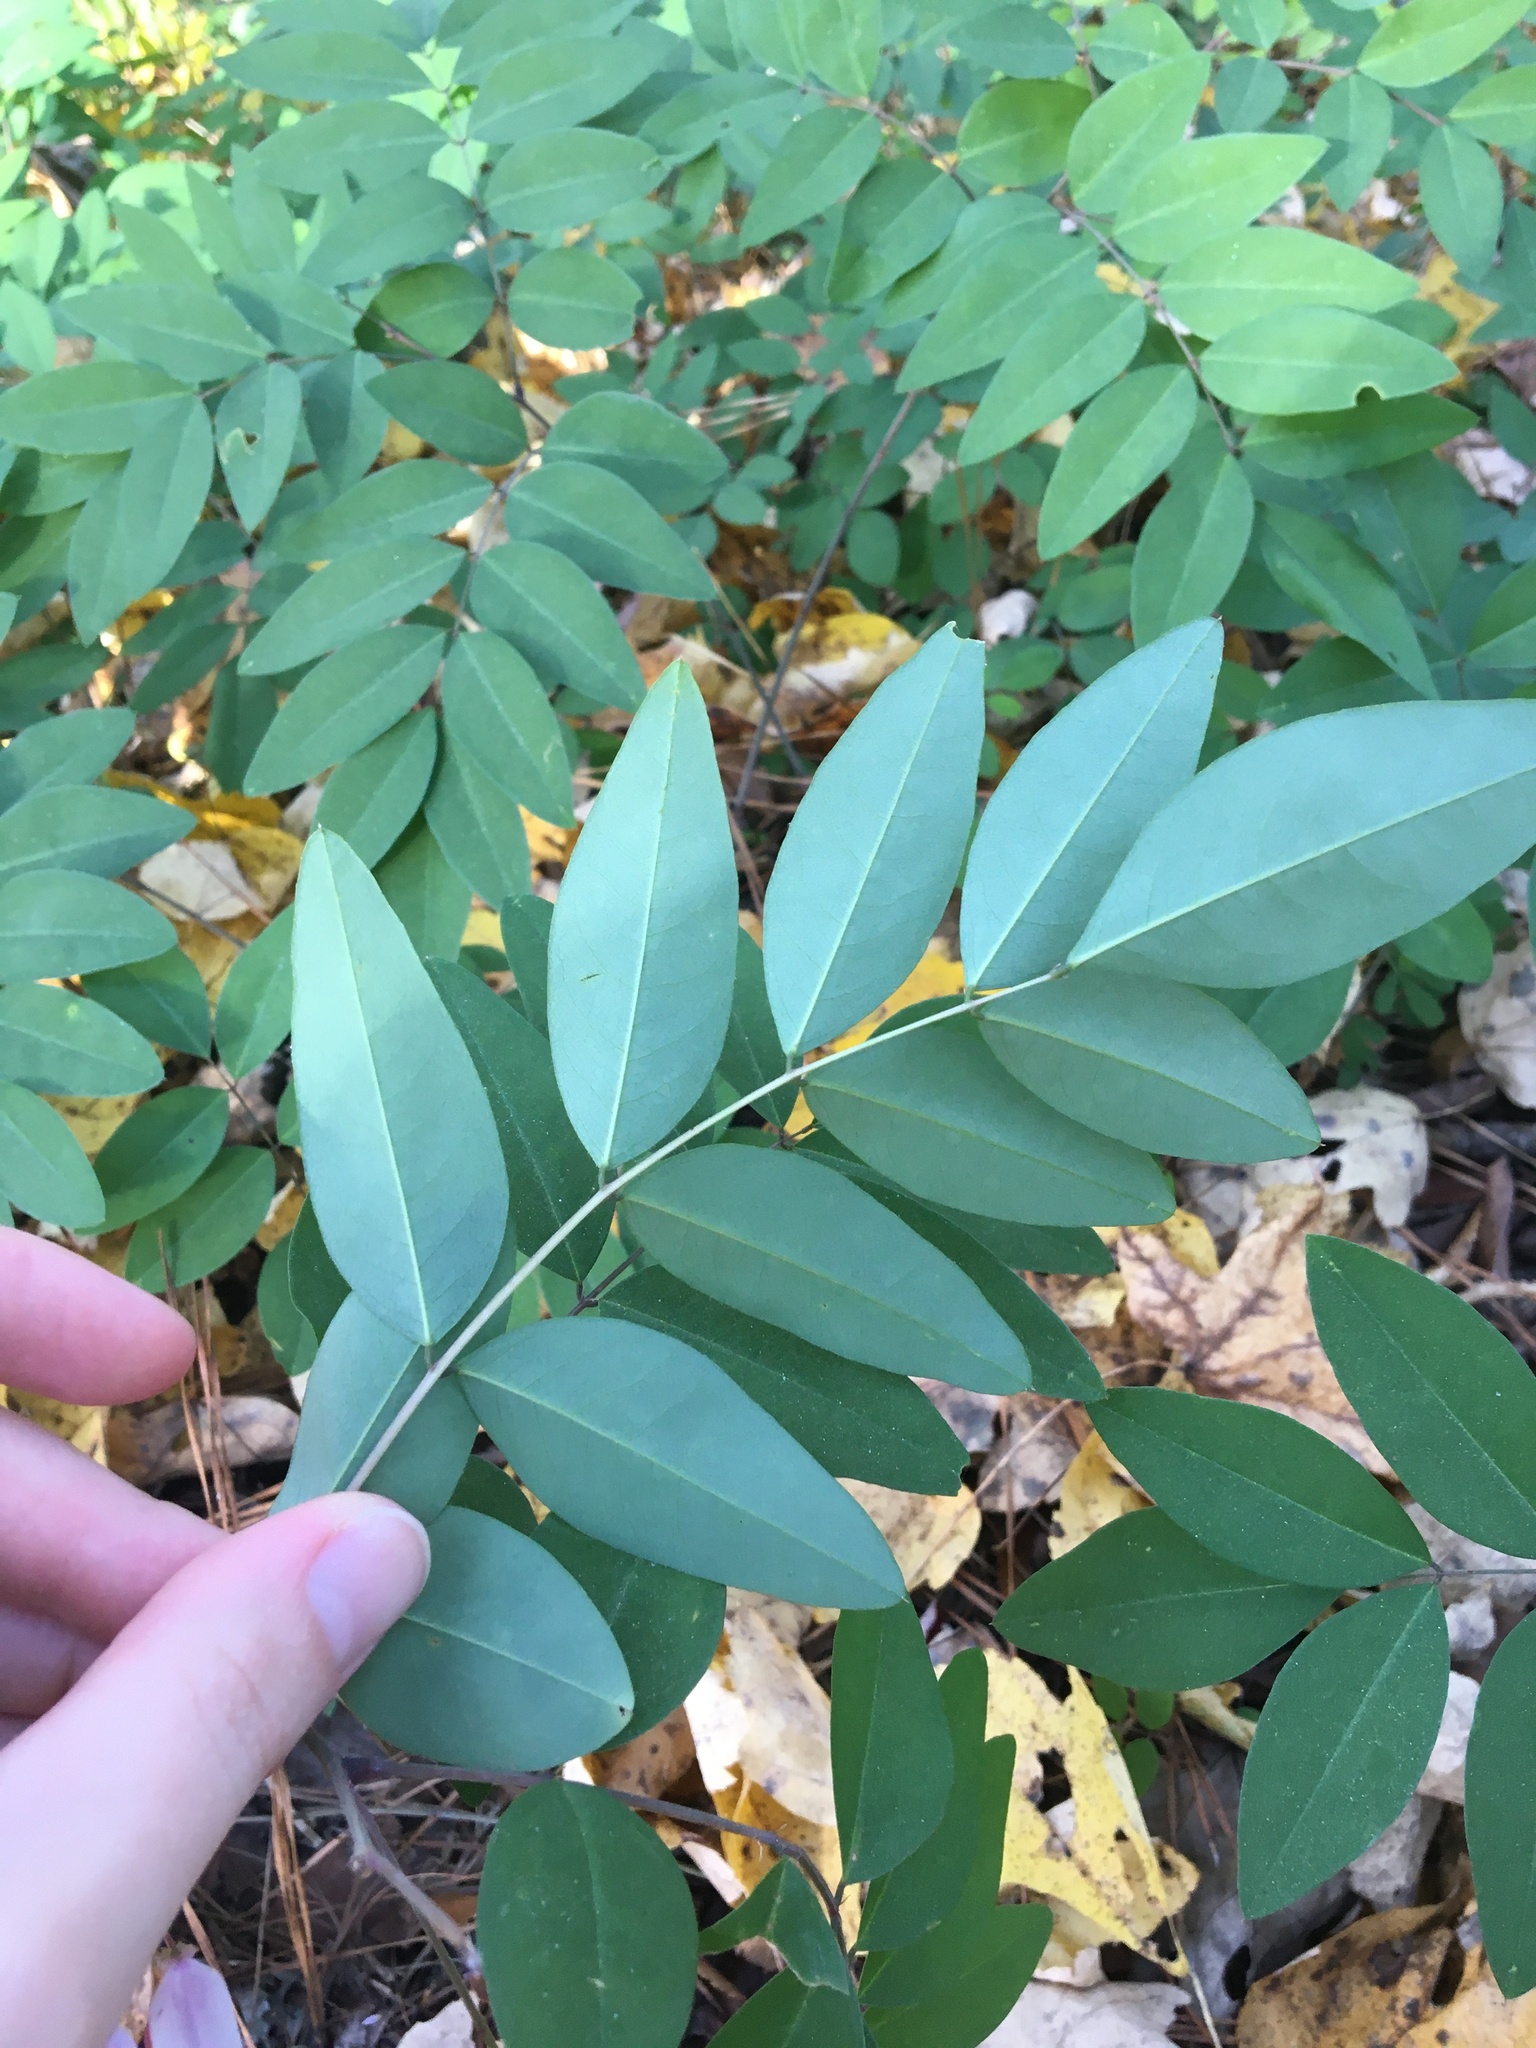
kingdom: Plantae
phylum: Tracheophyta
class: Magnoliopsida
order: Fabales
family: Fabaceae
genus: Indigofera
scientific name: Indigofera incarnata
